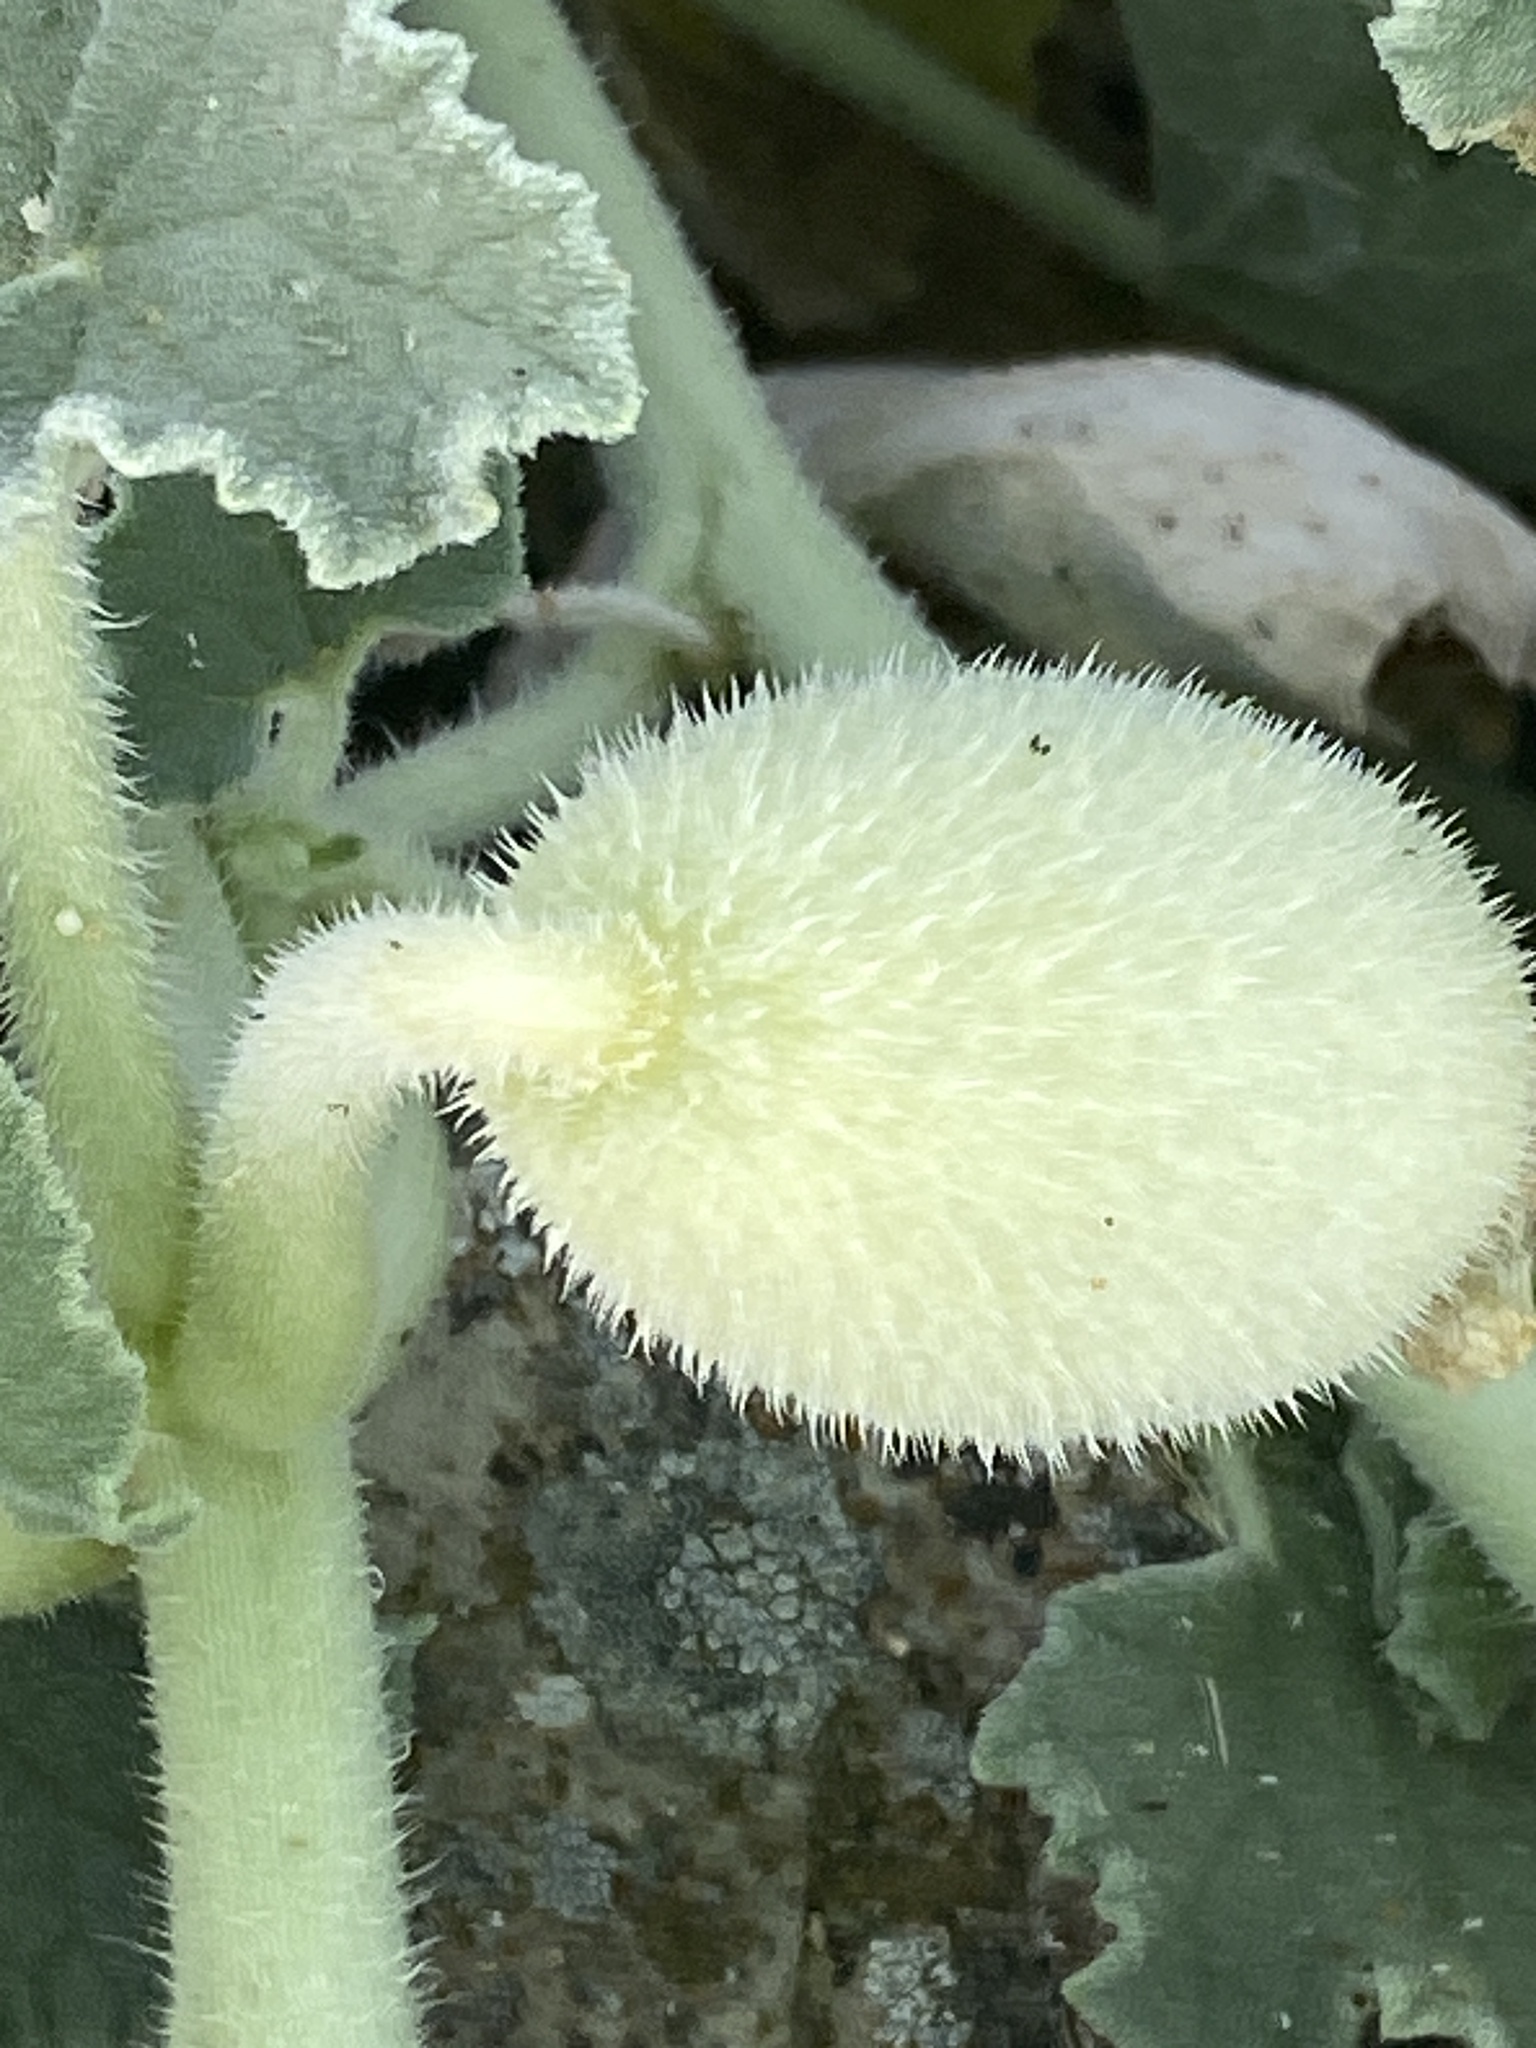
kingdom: Plantae
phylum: Tracheophyta
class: Magnoliopsida
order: Cucurbitales
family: Cucurbitaceae
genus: Ecballium
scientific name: Ecballium elaterium
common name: Squirting cucumber
